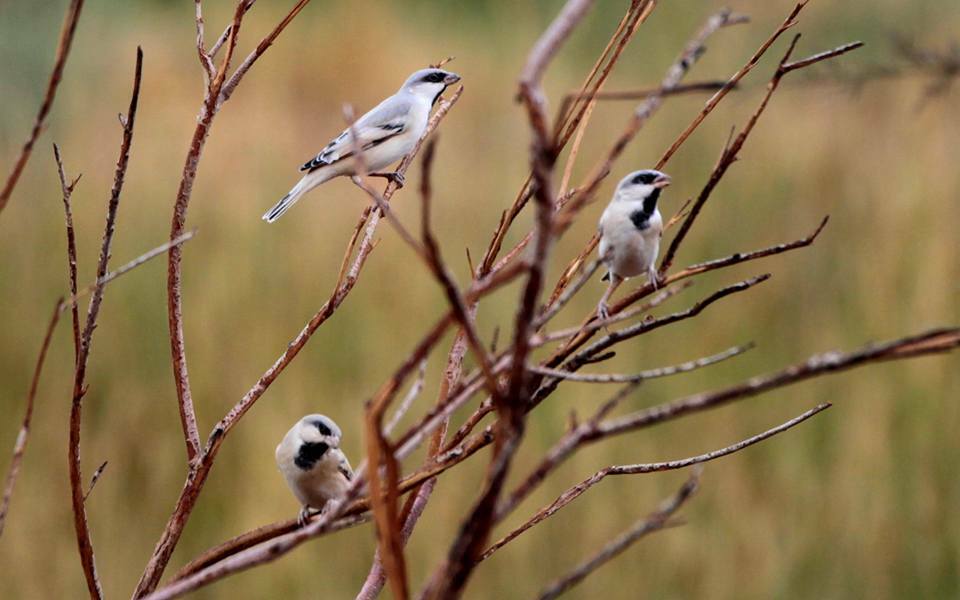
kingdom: Animalia
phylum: Chordata
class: Aves
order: Passeriformes
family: Passeridae
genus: Passer
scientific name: Passer simplex
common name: Desert sparrow
